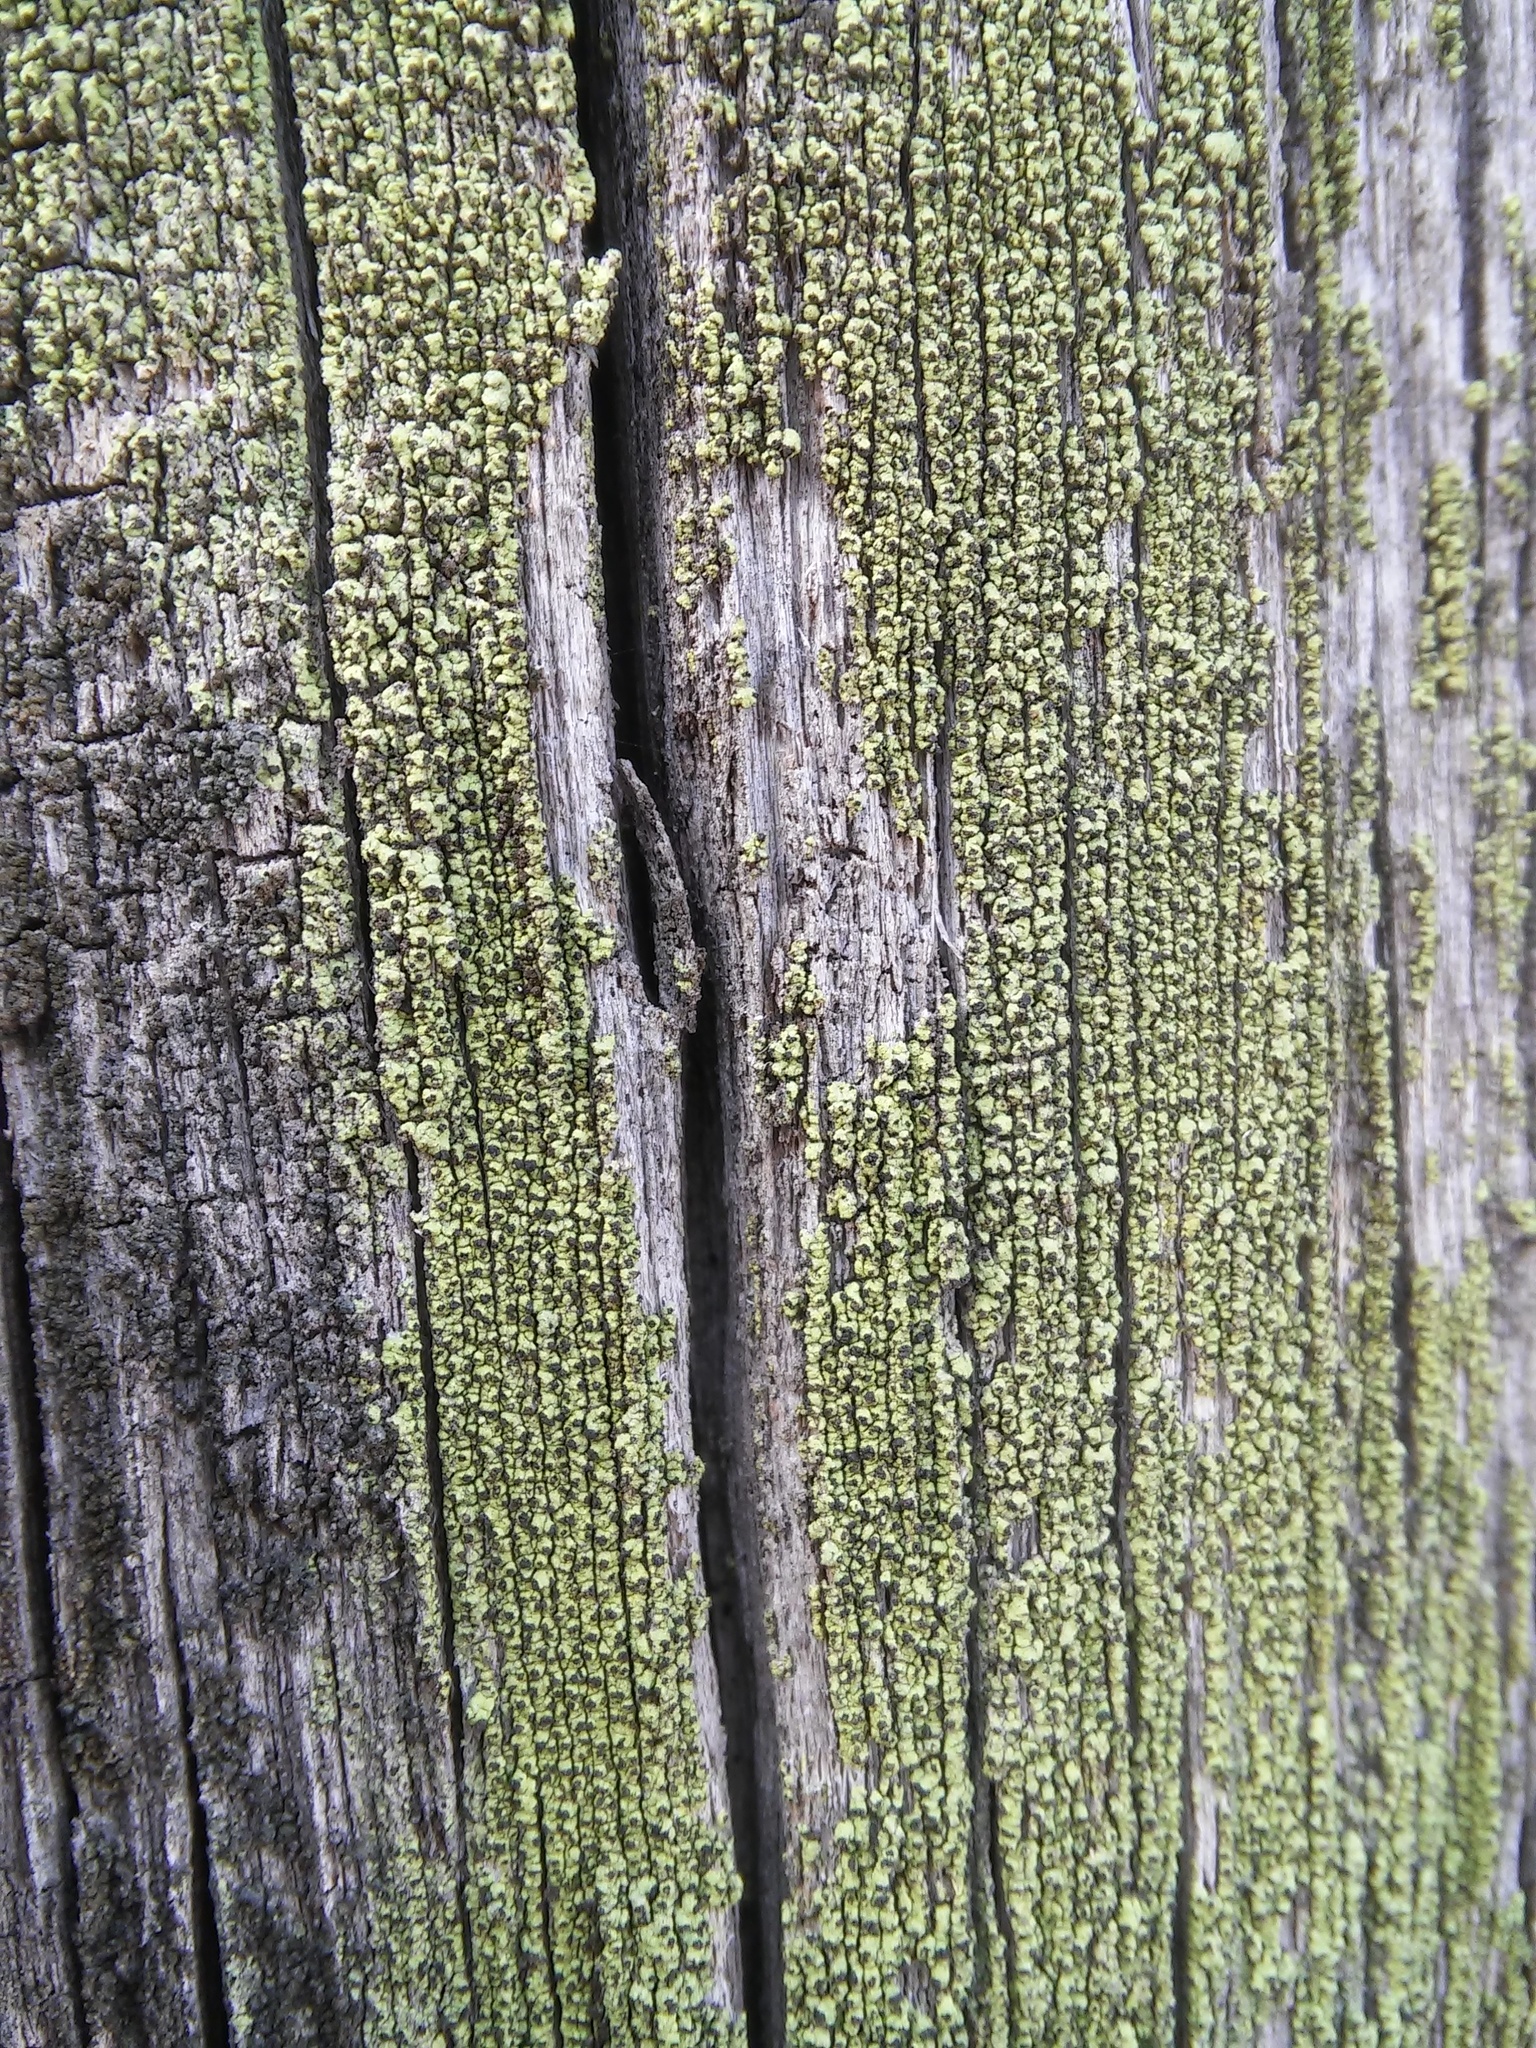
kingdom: Fungi
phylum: Ascomycota
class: Lecanoromycetes
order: Caliciales
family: Caliciaceae
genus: Calicium
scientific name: Calicium tigillare
